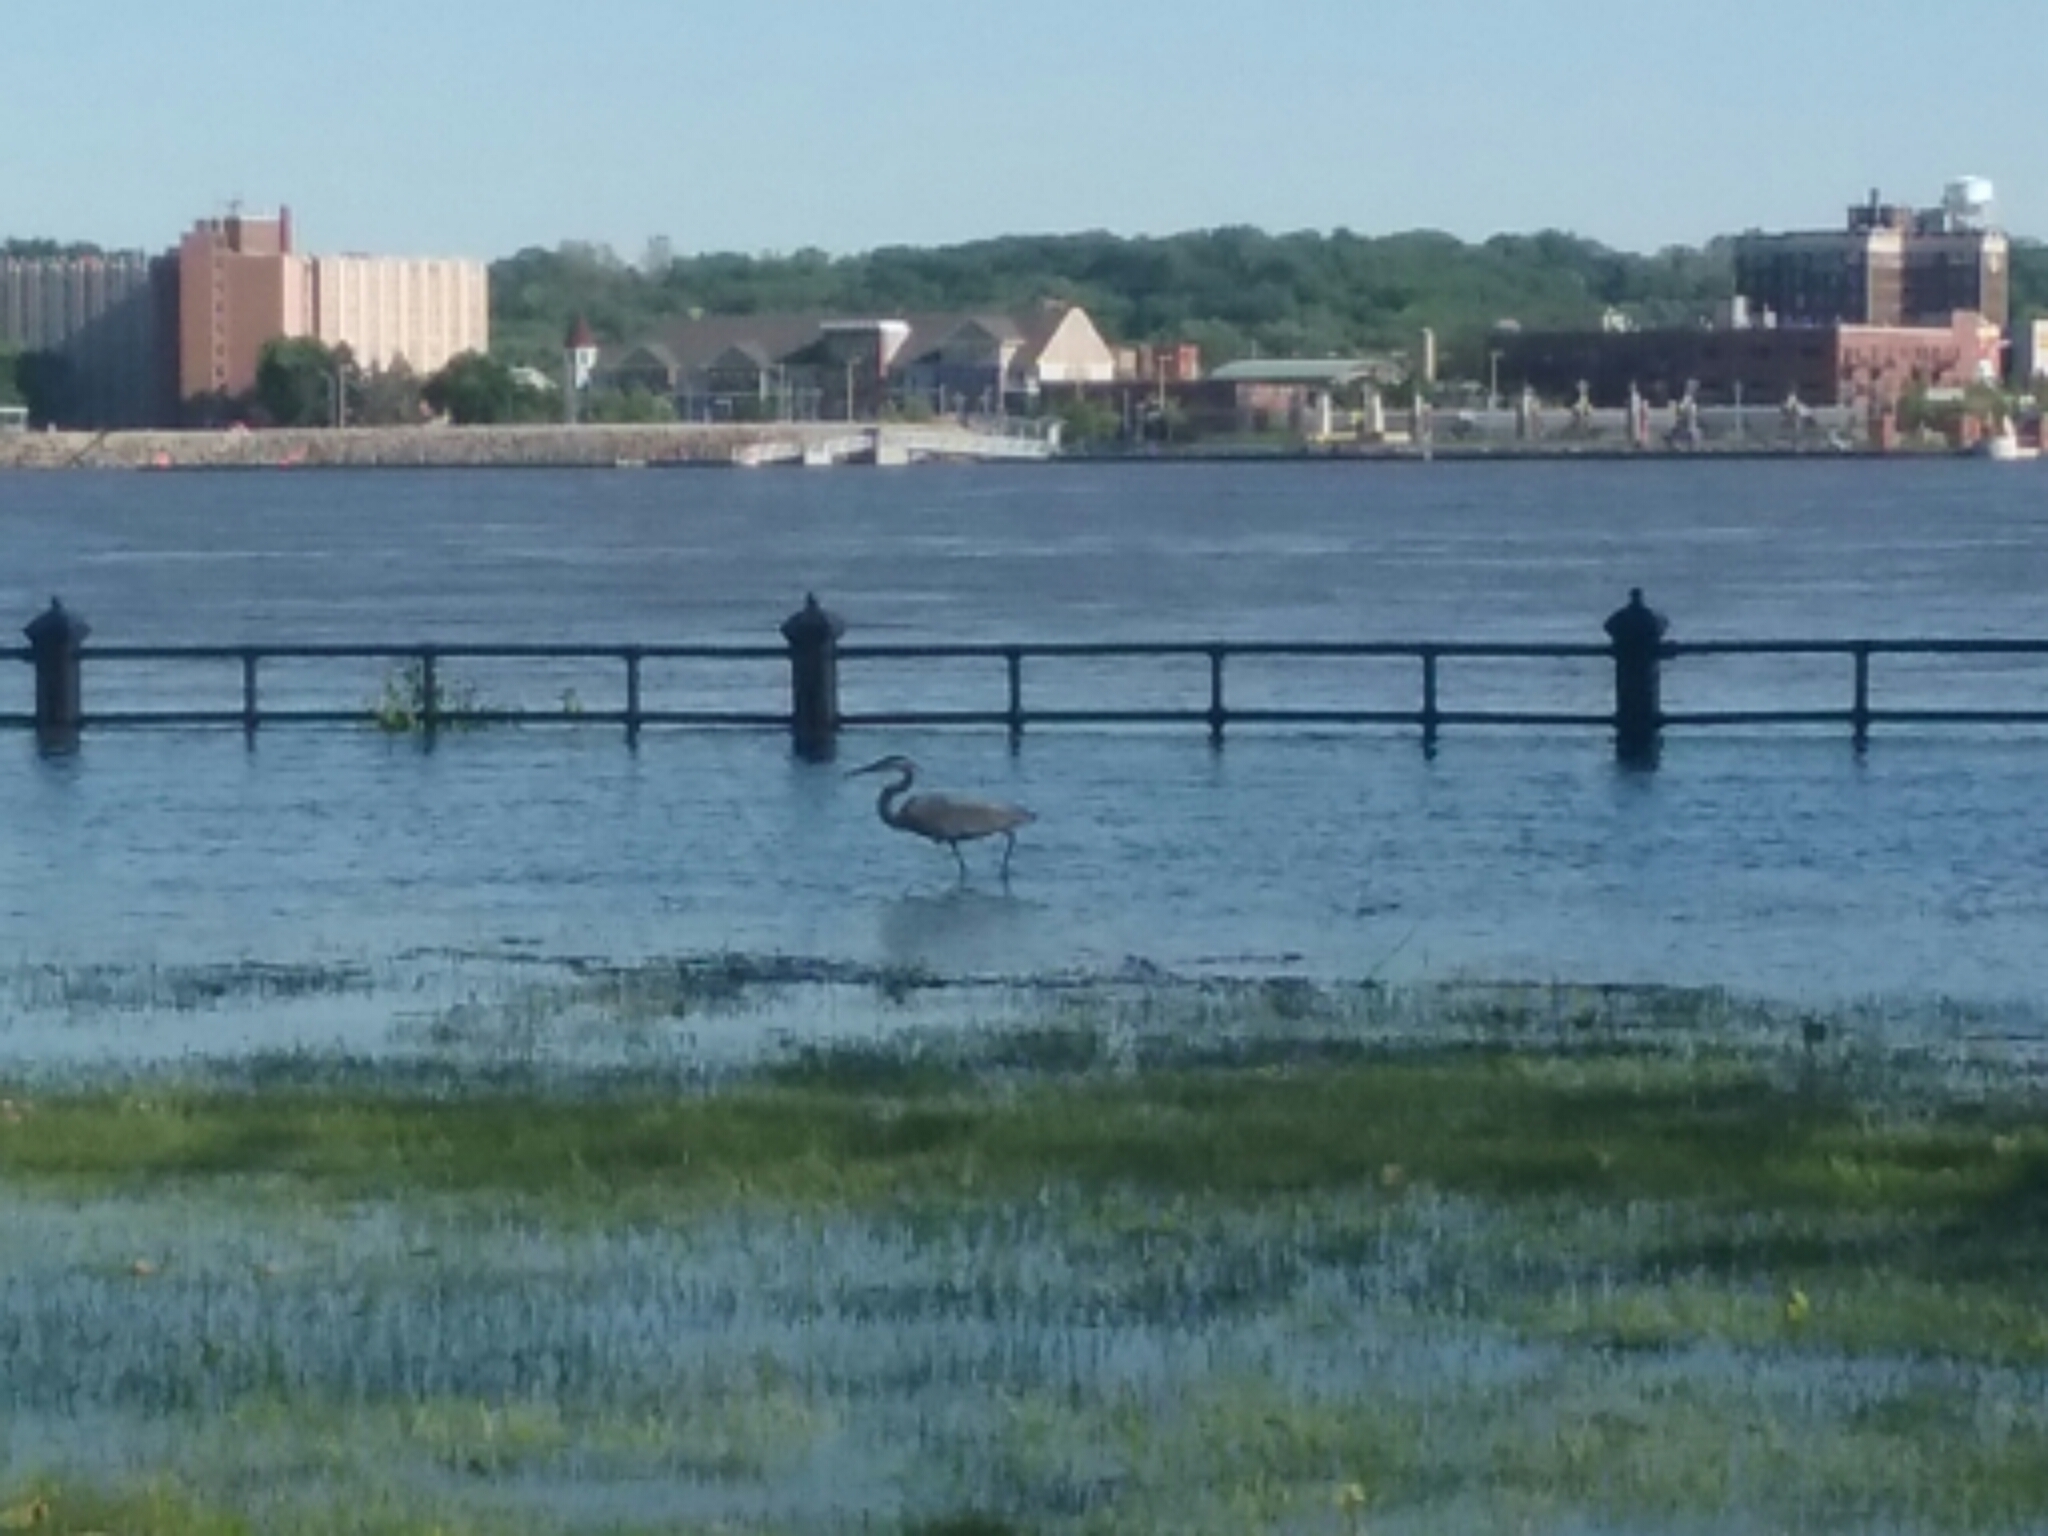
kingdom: Animalia
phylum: Chordata
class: Aves
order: Pelecaniformes
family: Ardeidae
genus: Ardea
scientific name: Ardea herodias
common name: Great blue heron
